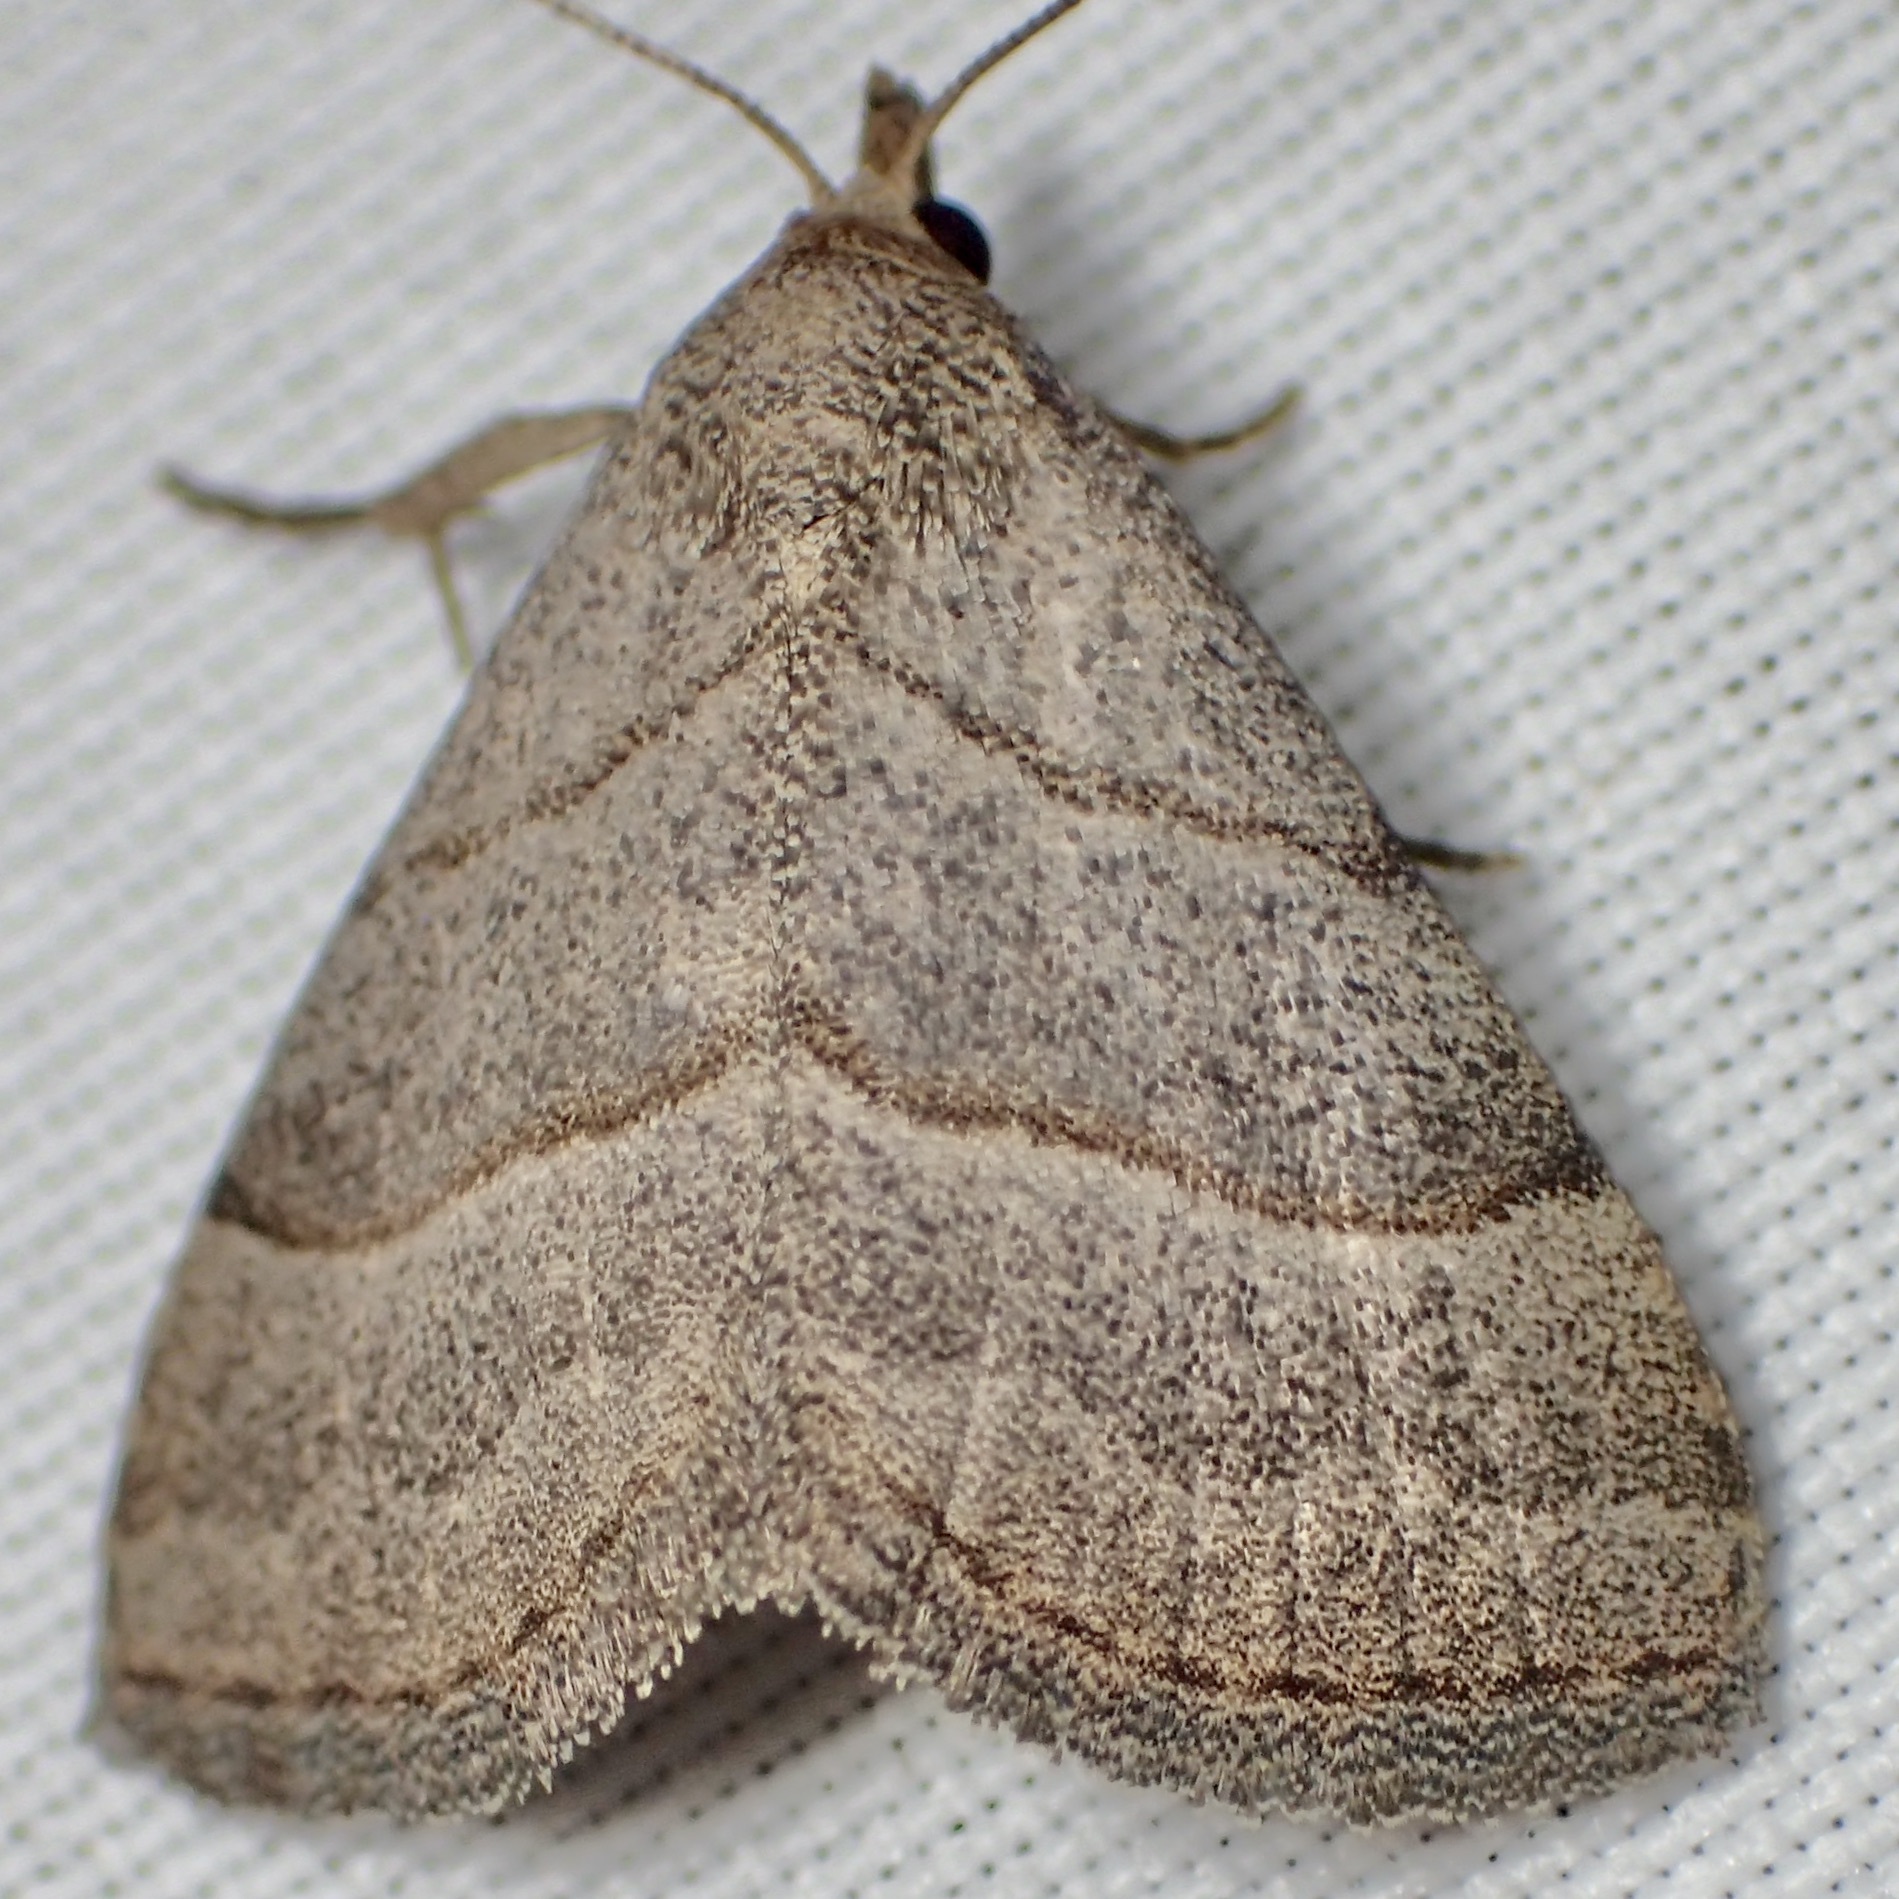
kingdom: Animalia
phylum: Arthropoda
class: Insecta
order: Lepidoptera
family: Erebidae
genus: Zelicodes
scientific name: Zelicodes linearis
